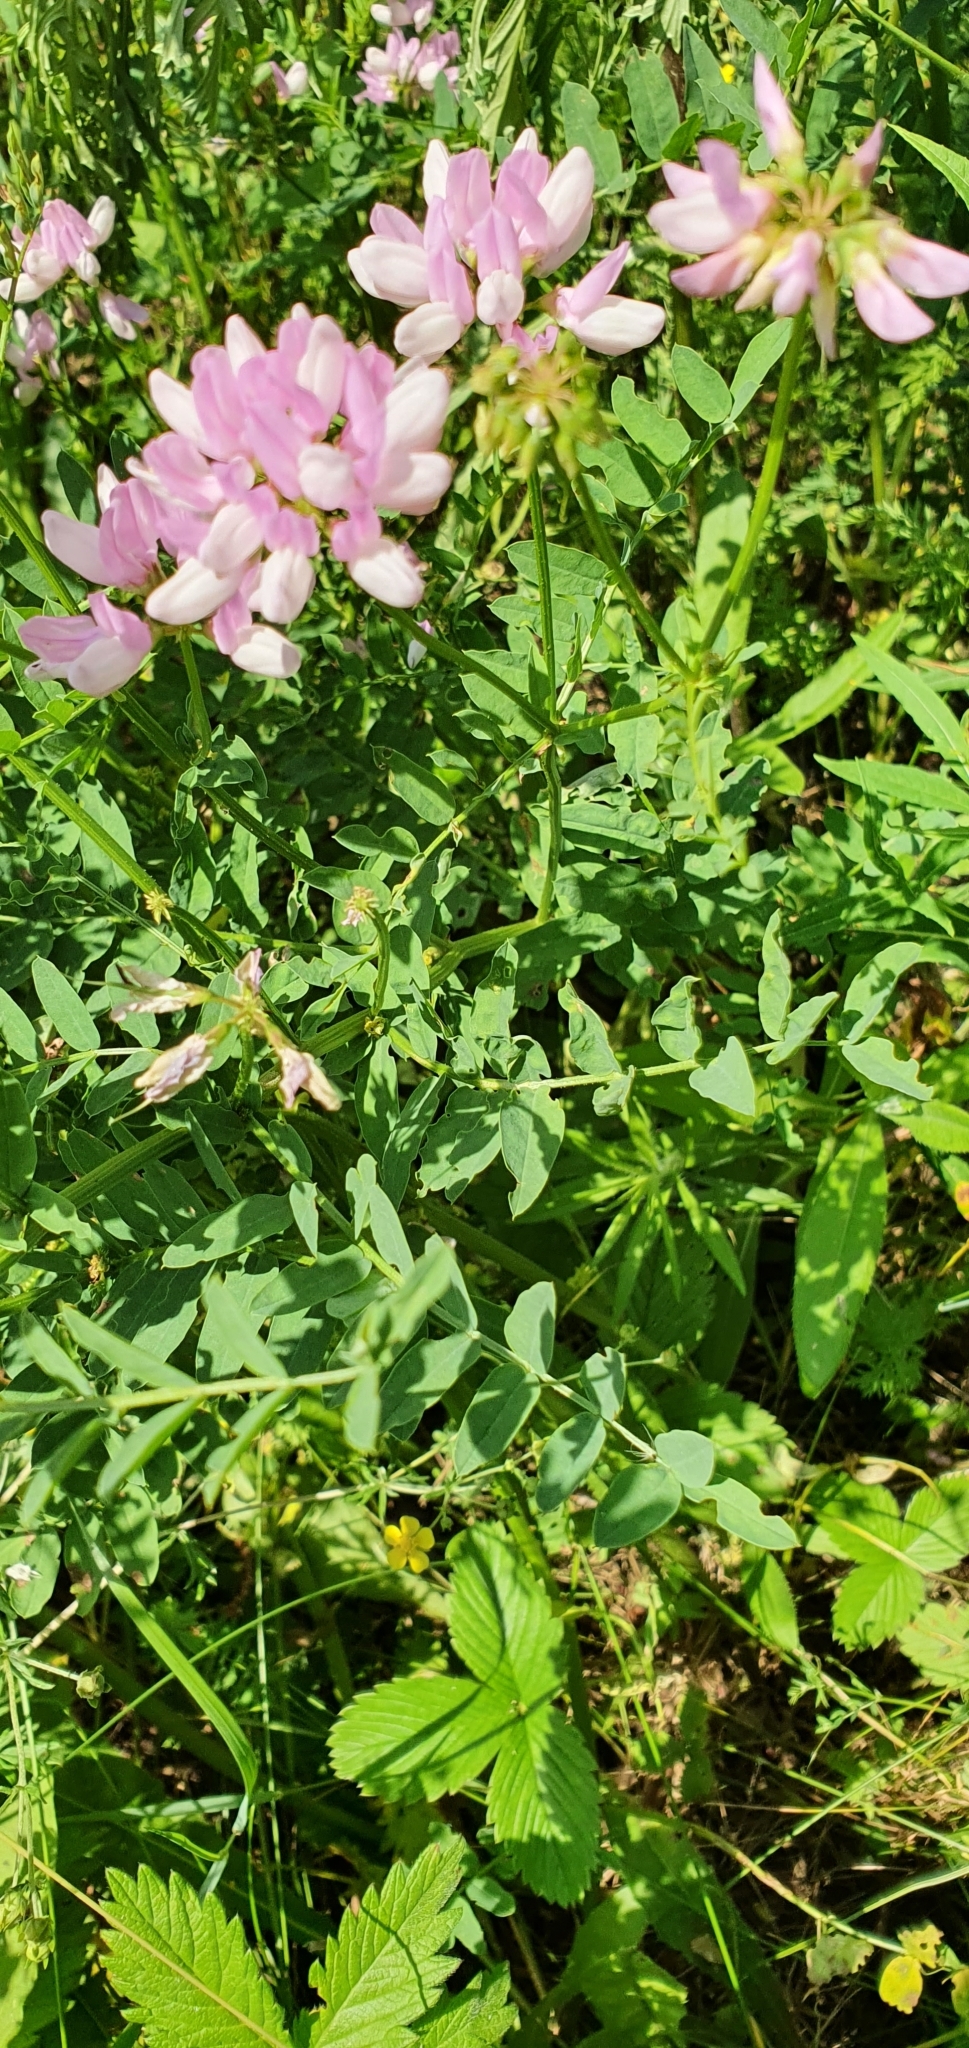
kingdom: Plantae
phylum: Tracheophyta
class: Magnoliopsida
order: Fabales
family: Fabaceae
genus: Coronilla
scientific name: Coronilla varia
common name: Crownvetch
